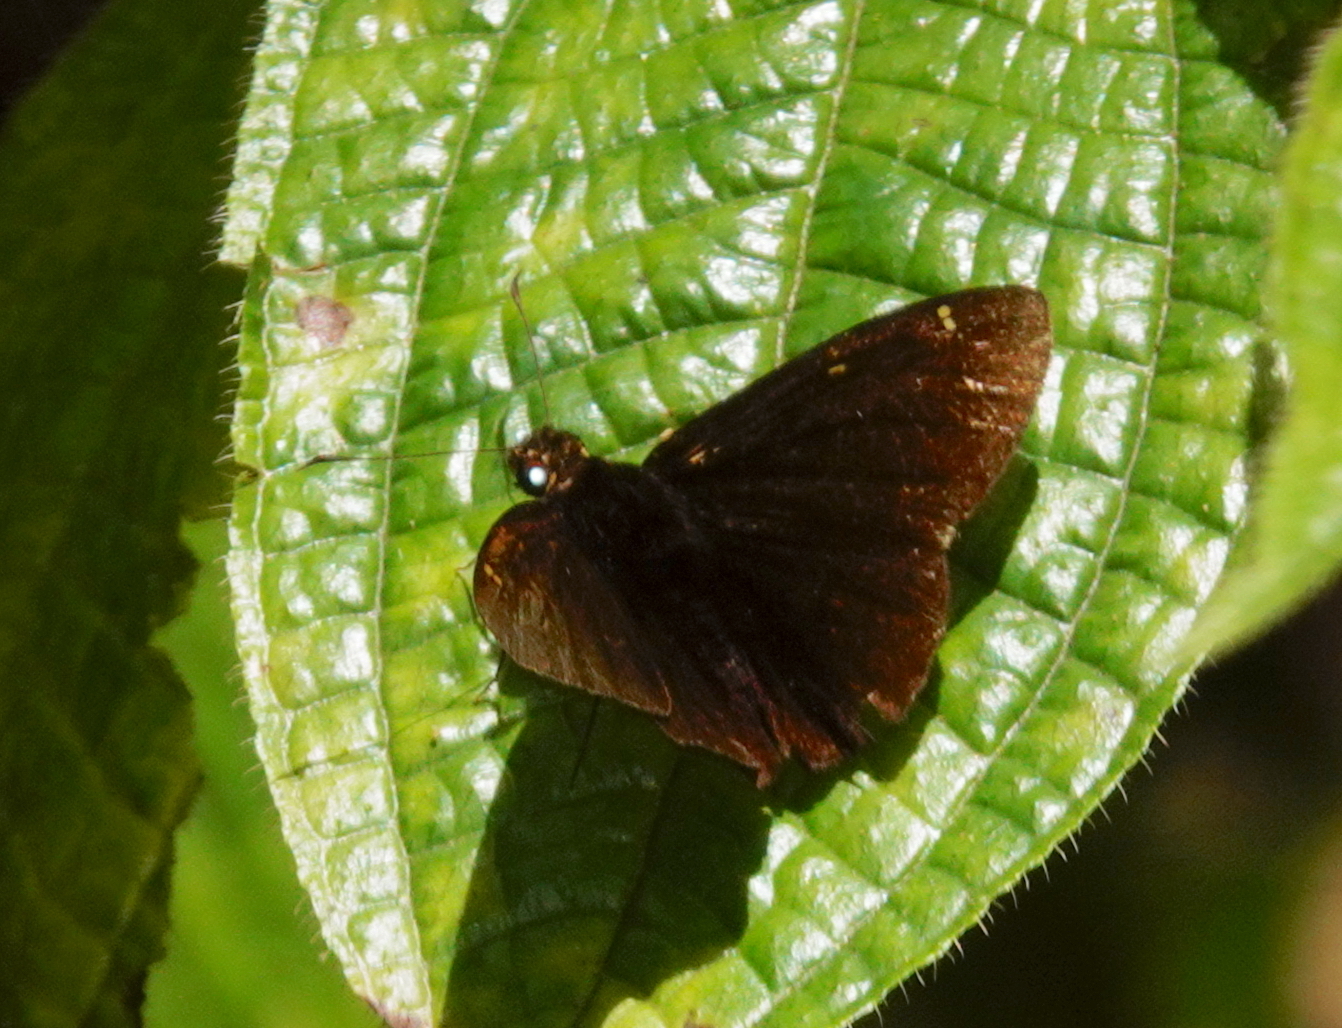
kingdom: Animalia
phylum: Arthropoda
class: Insecta
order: Lepidoptera
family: Hesperiidae
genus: Celaenorrhinus
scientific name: Celaenorrhinus spilothyrus
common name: Sri lanka black flat
